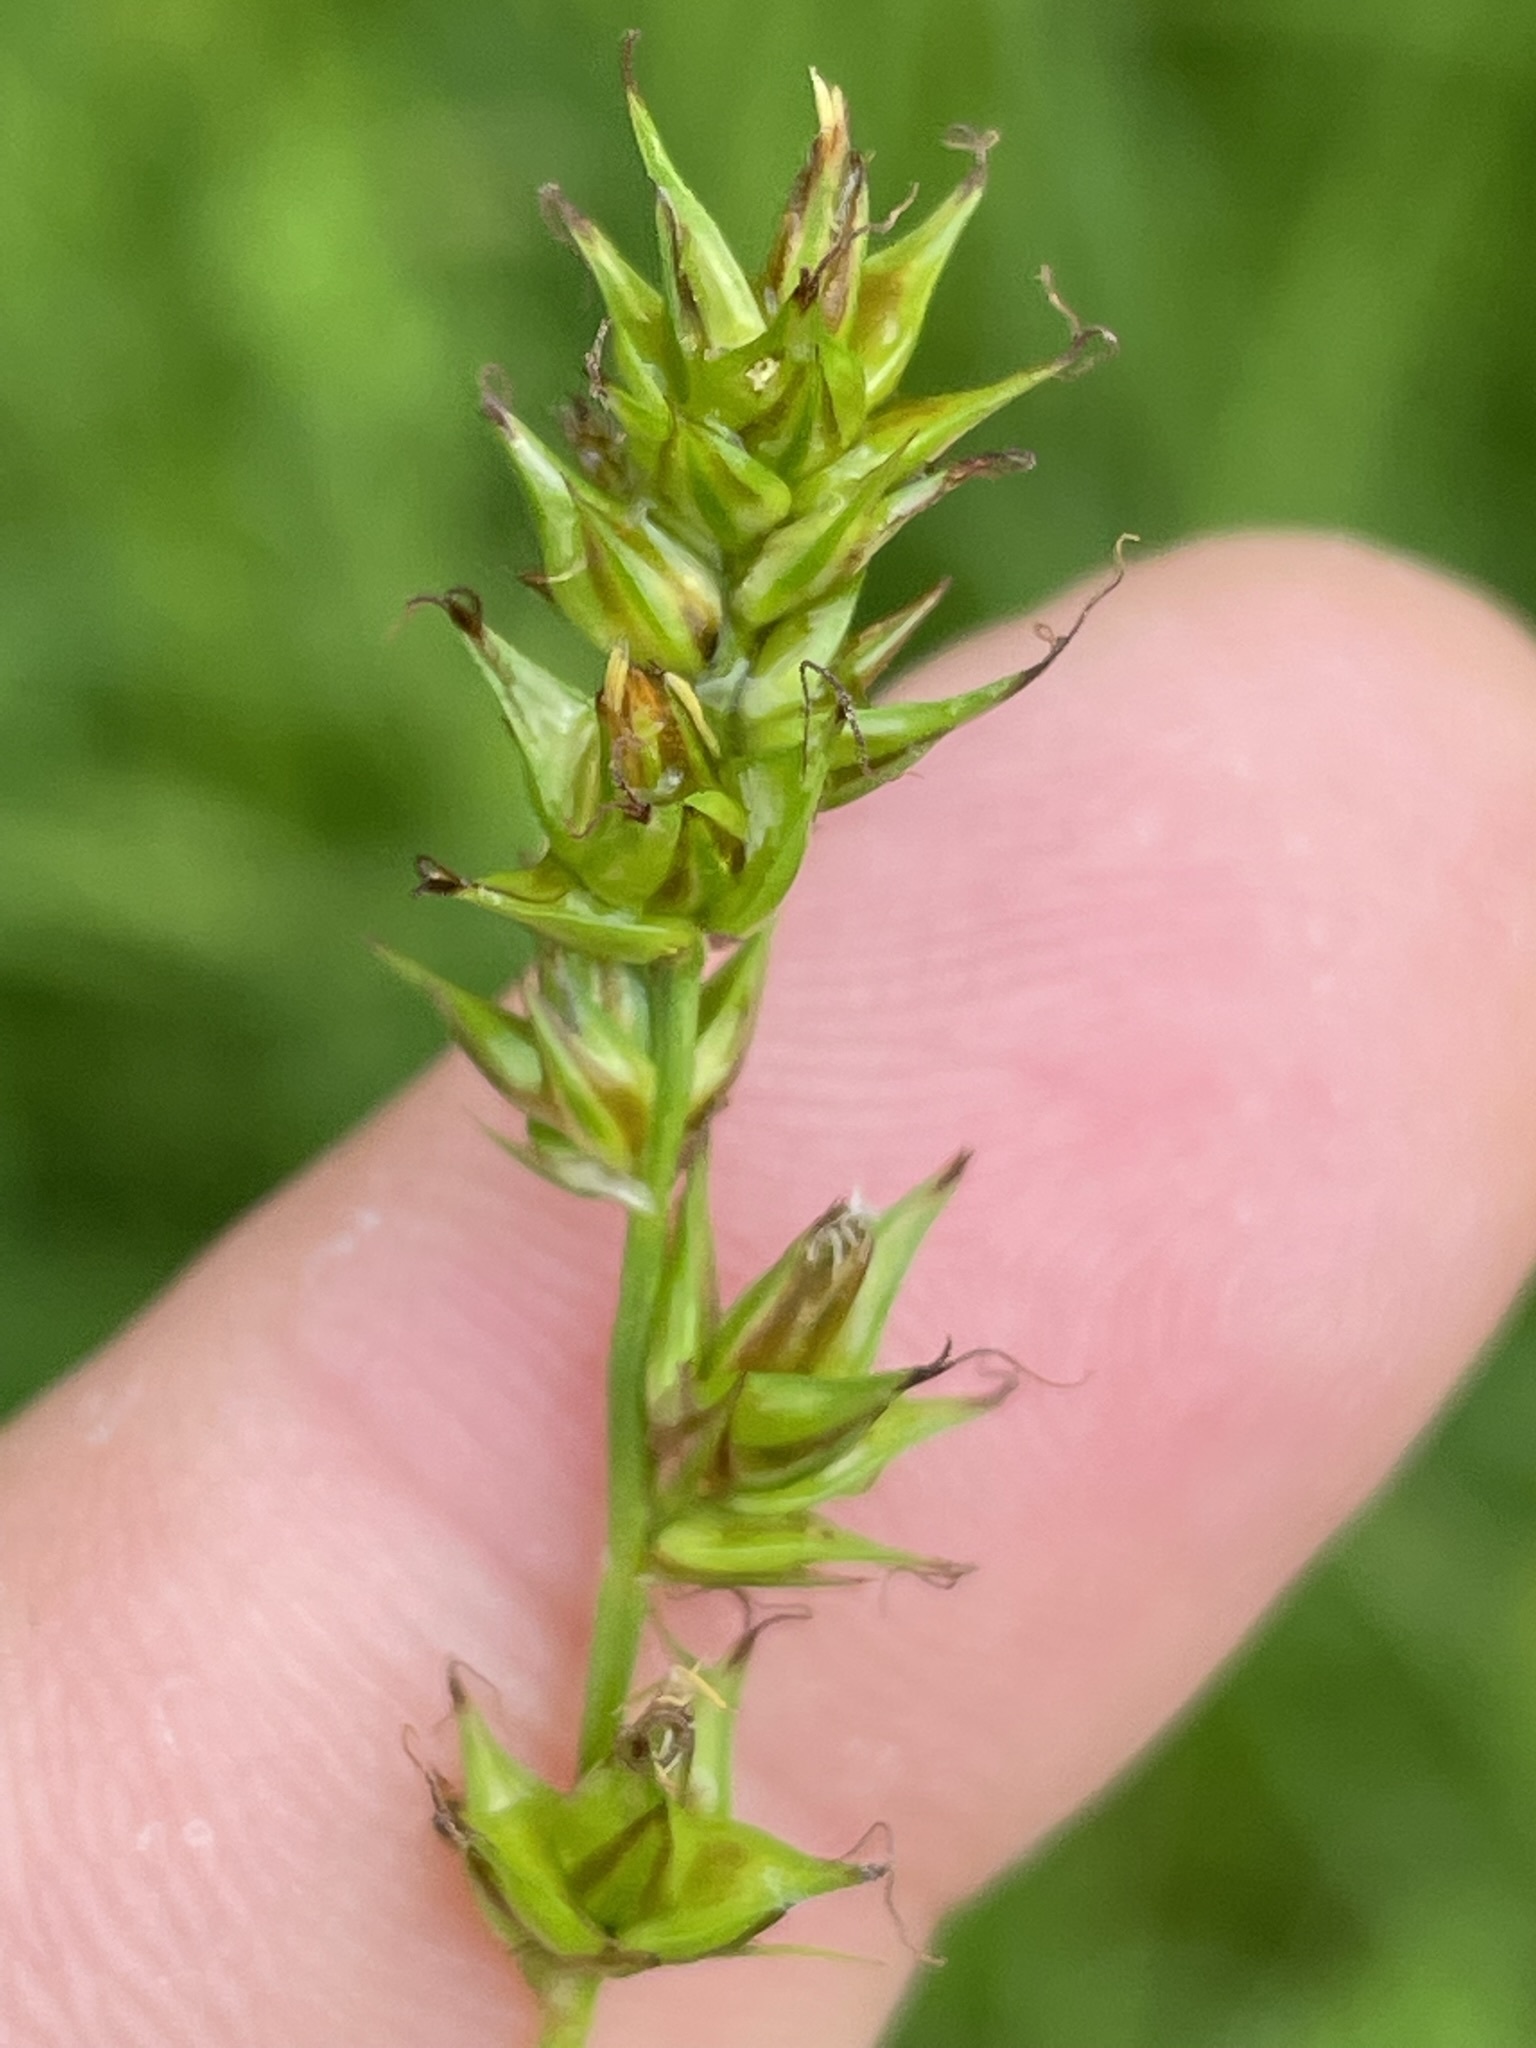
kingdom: Plantae
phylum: Tracheophyta
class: Liliopsida
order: Poales
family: Cyperaceae
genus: Carex
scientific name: Carex spicata
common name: Spiked sedge
